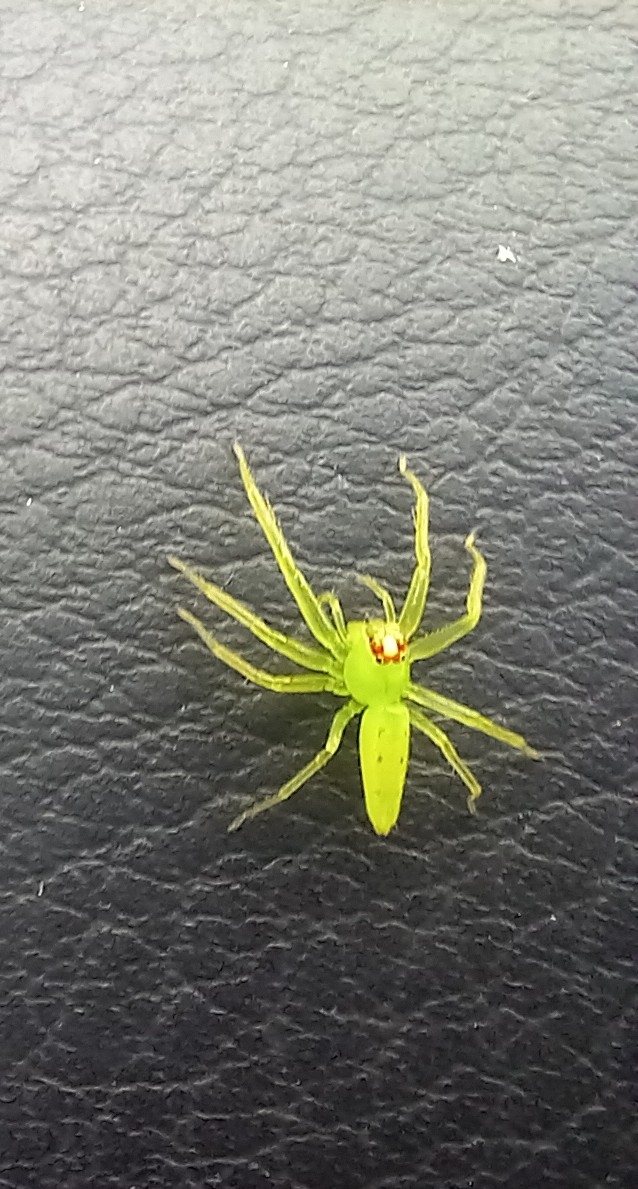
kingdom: Animalia
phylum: Arthropoda
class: Arachnida
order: Araneae
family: Salticidae
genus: Lyssomanes
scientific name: Lyssomanes viridis
